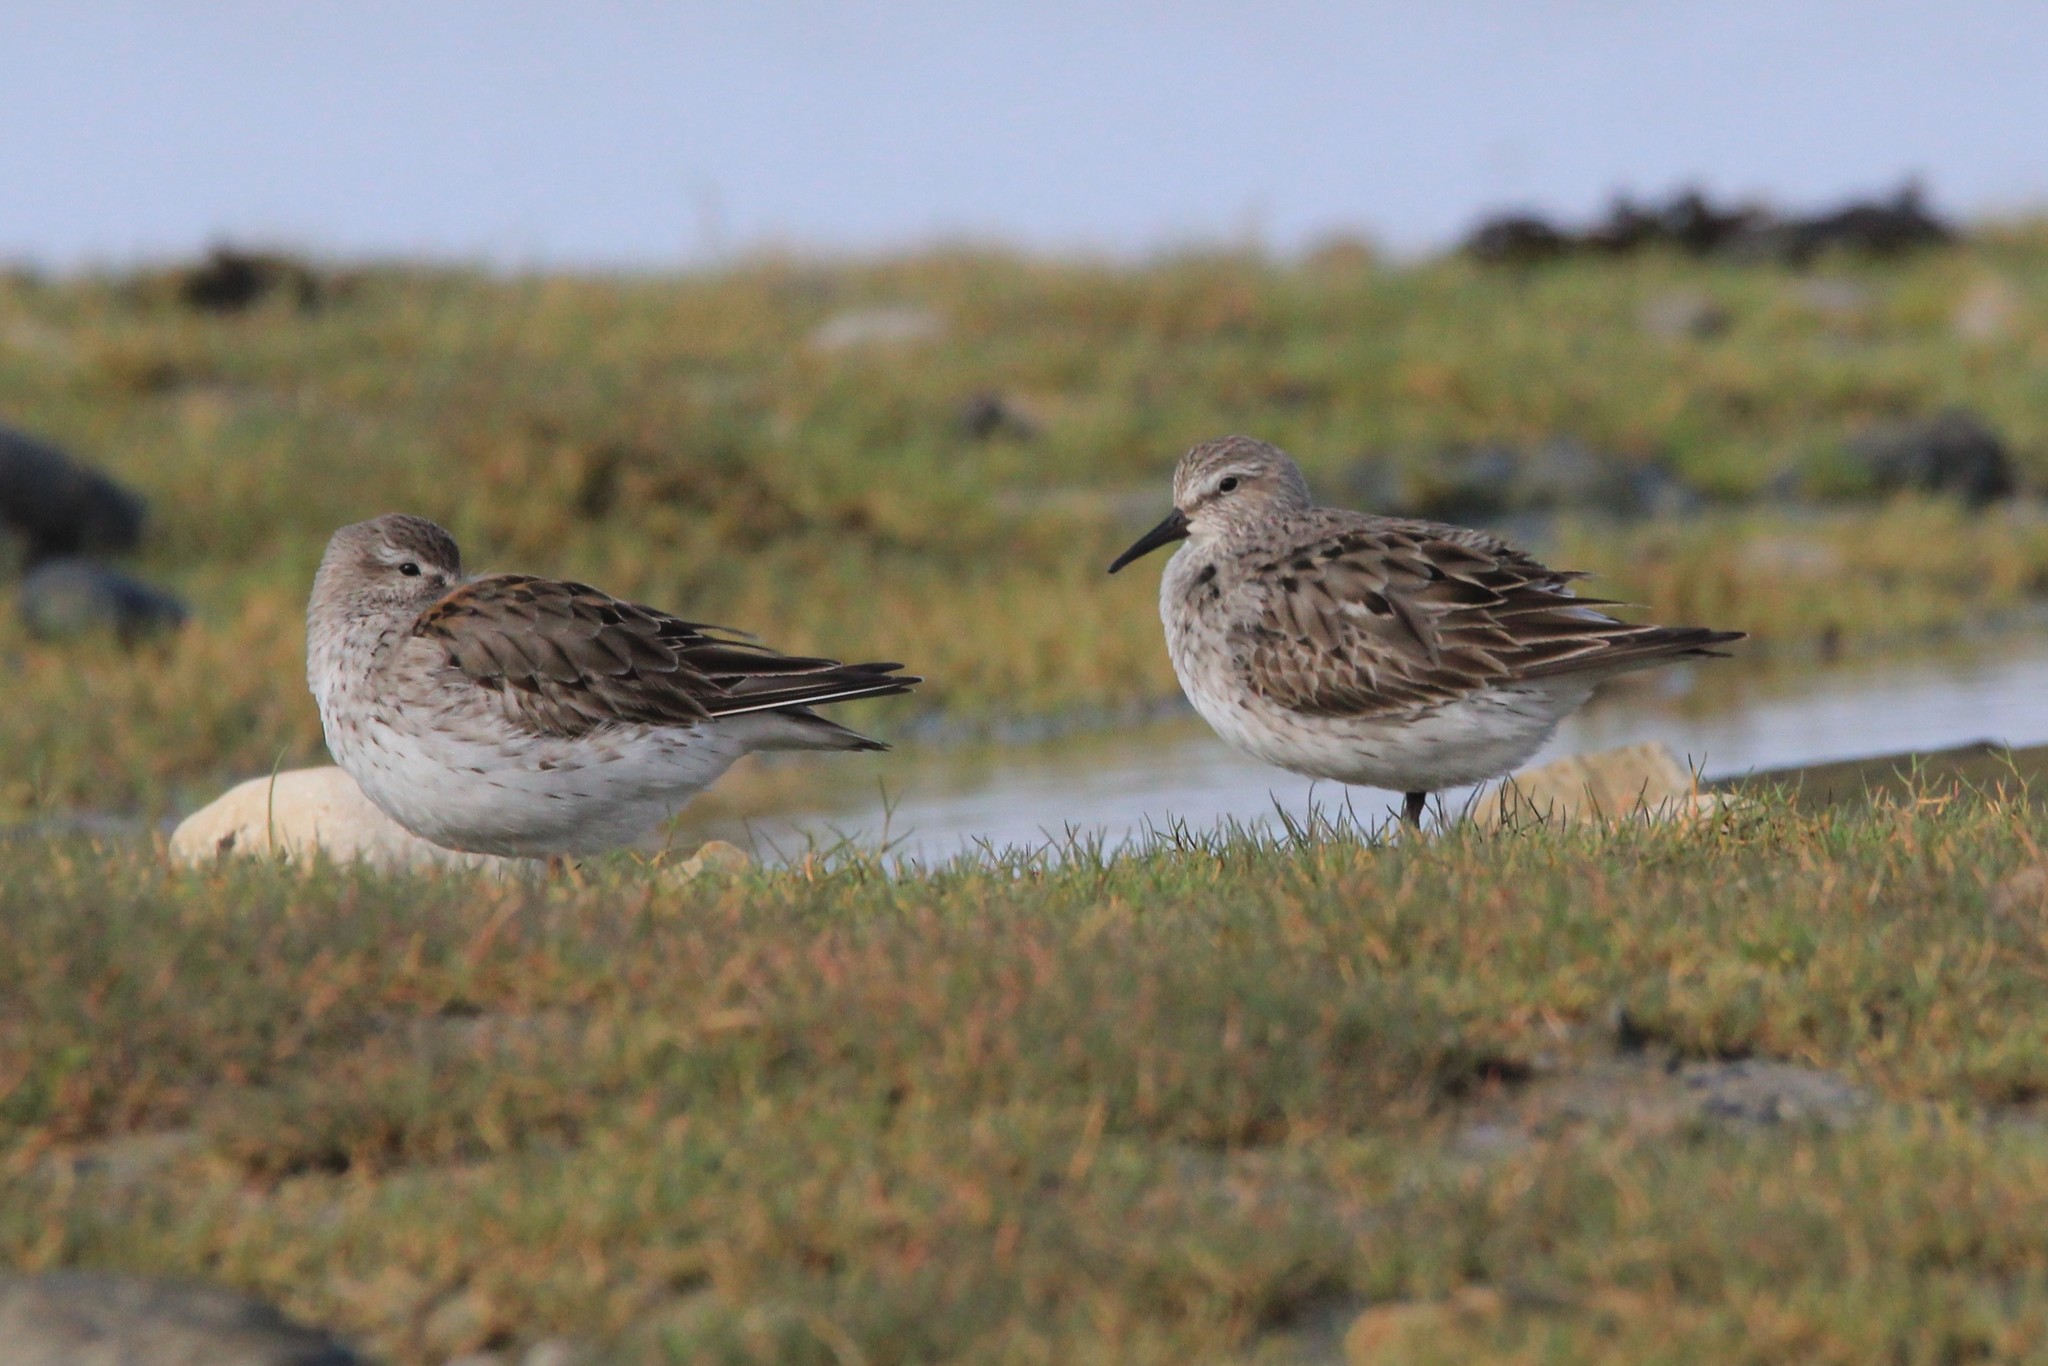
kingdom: Animalia
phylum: Chordata
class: Aves
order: Charadriiformes
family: Scolopacidae
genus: Calidris
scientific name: Calidris fuscicollis
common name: White-rumped sandpiper
